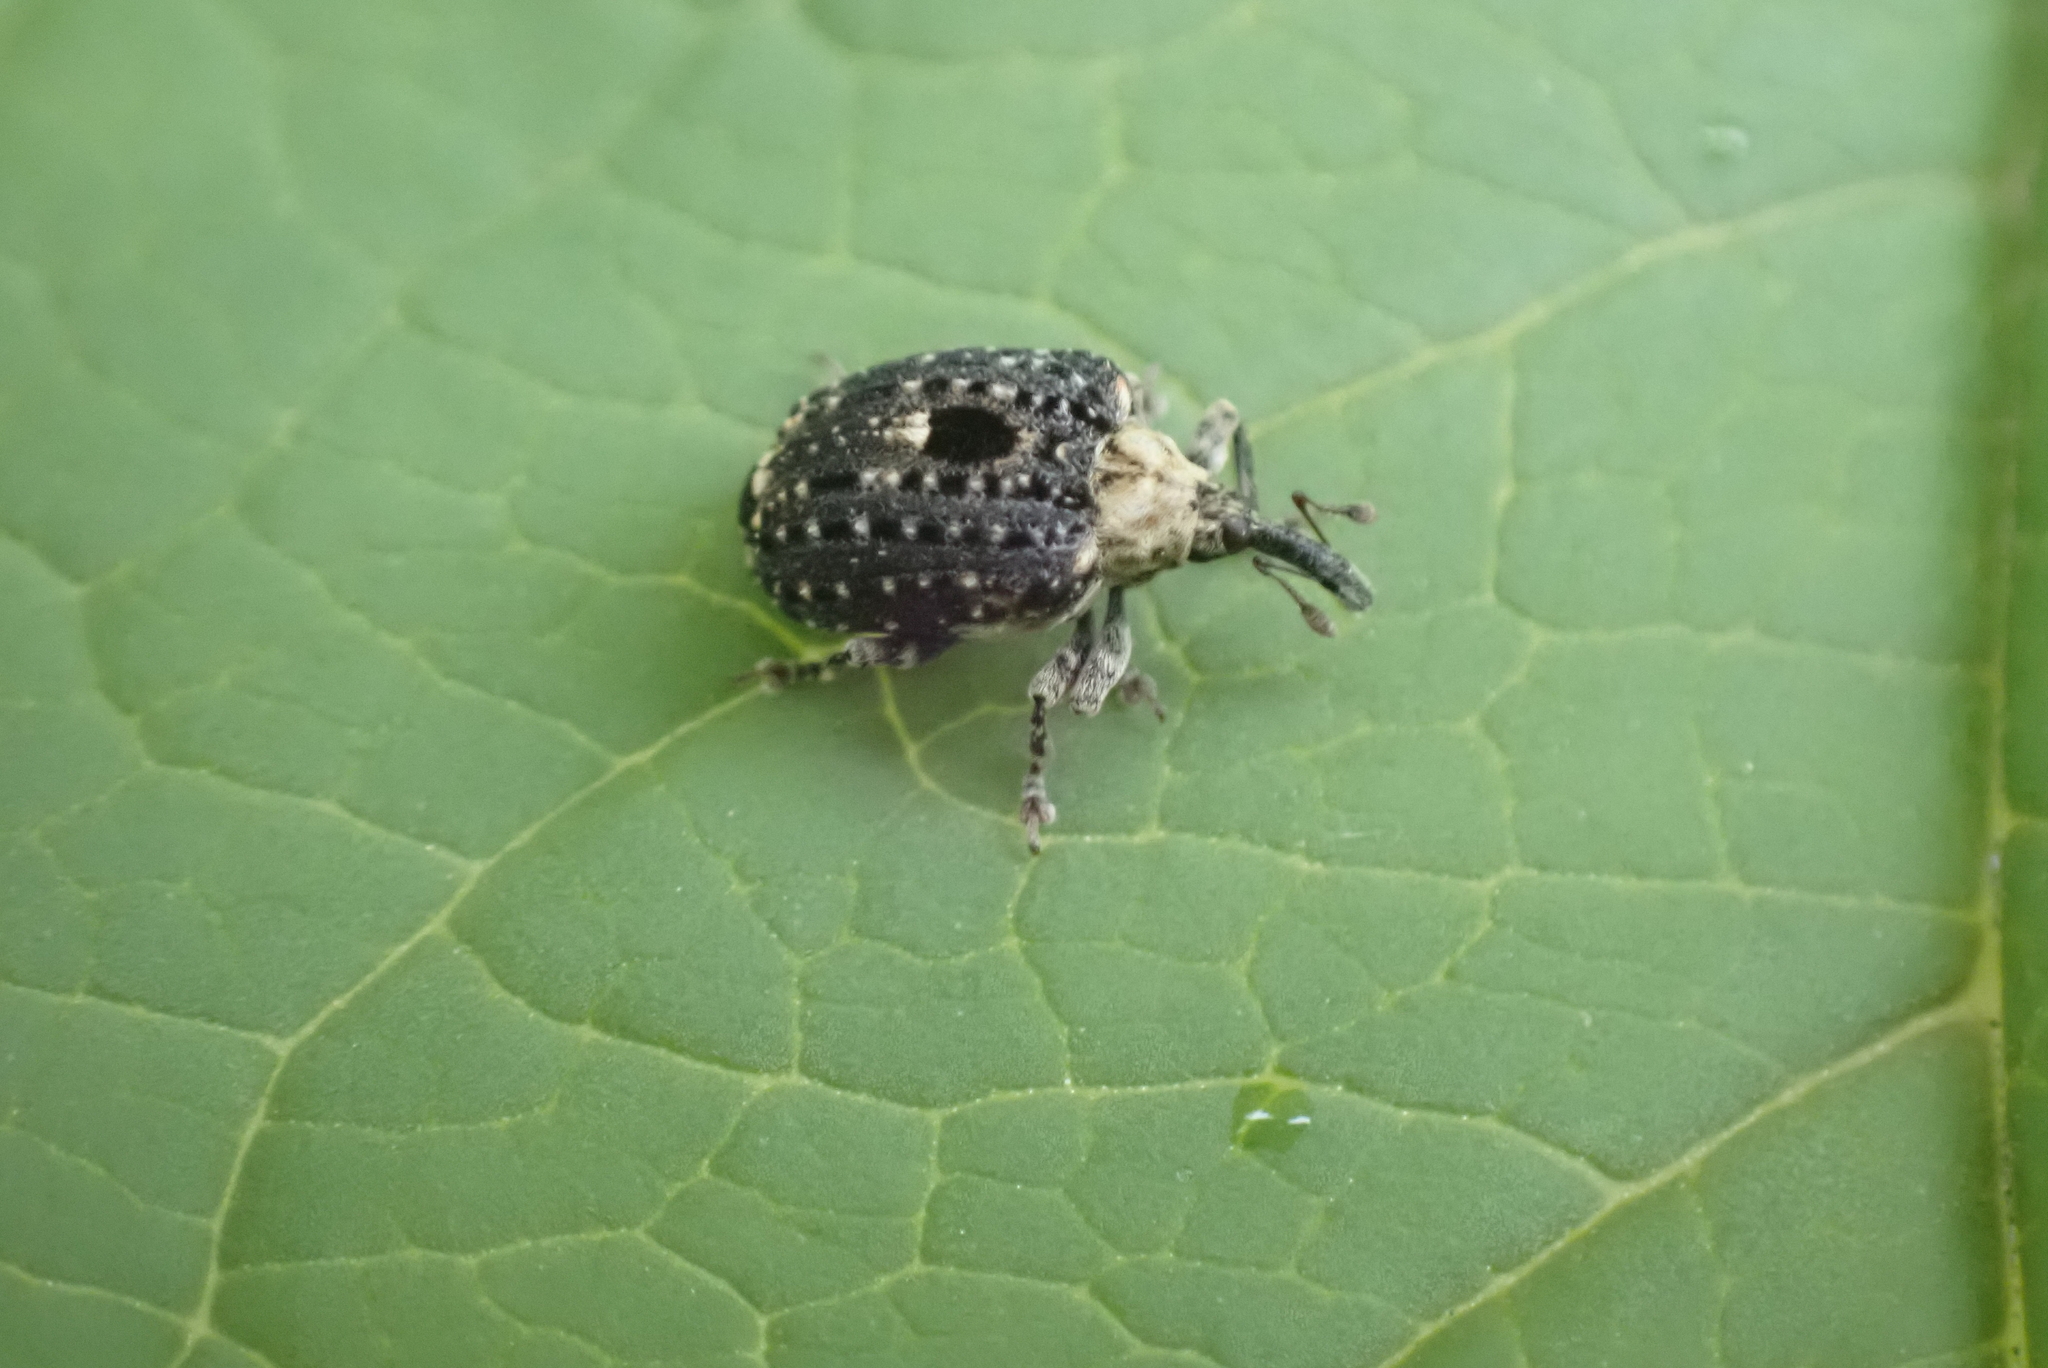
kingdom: Animalia
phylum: Arthropoda
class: Insecta
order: Coleoptera
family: Curculionidae
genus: Cionus
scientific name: Cionus scrophulariae
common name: Common figwort weevil
